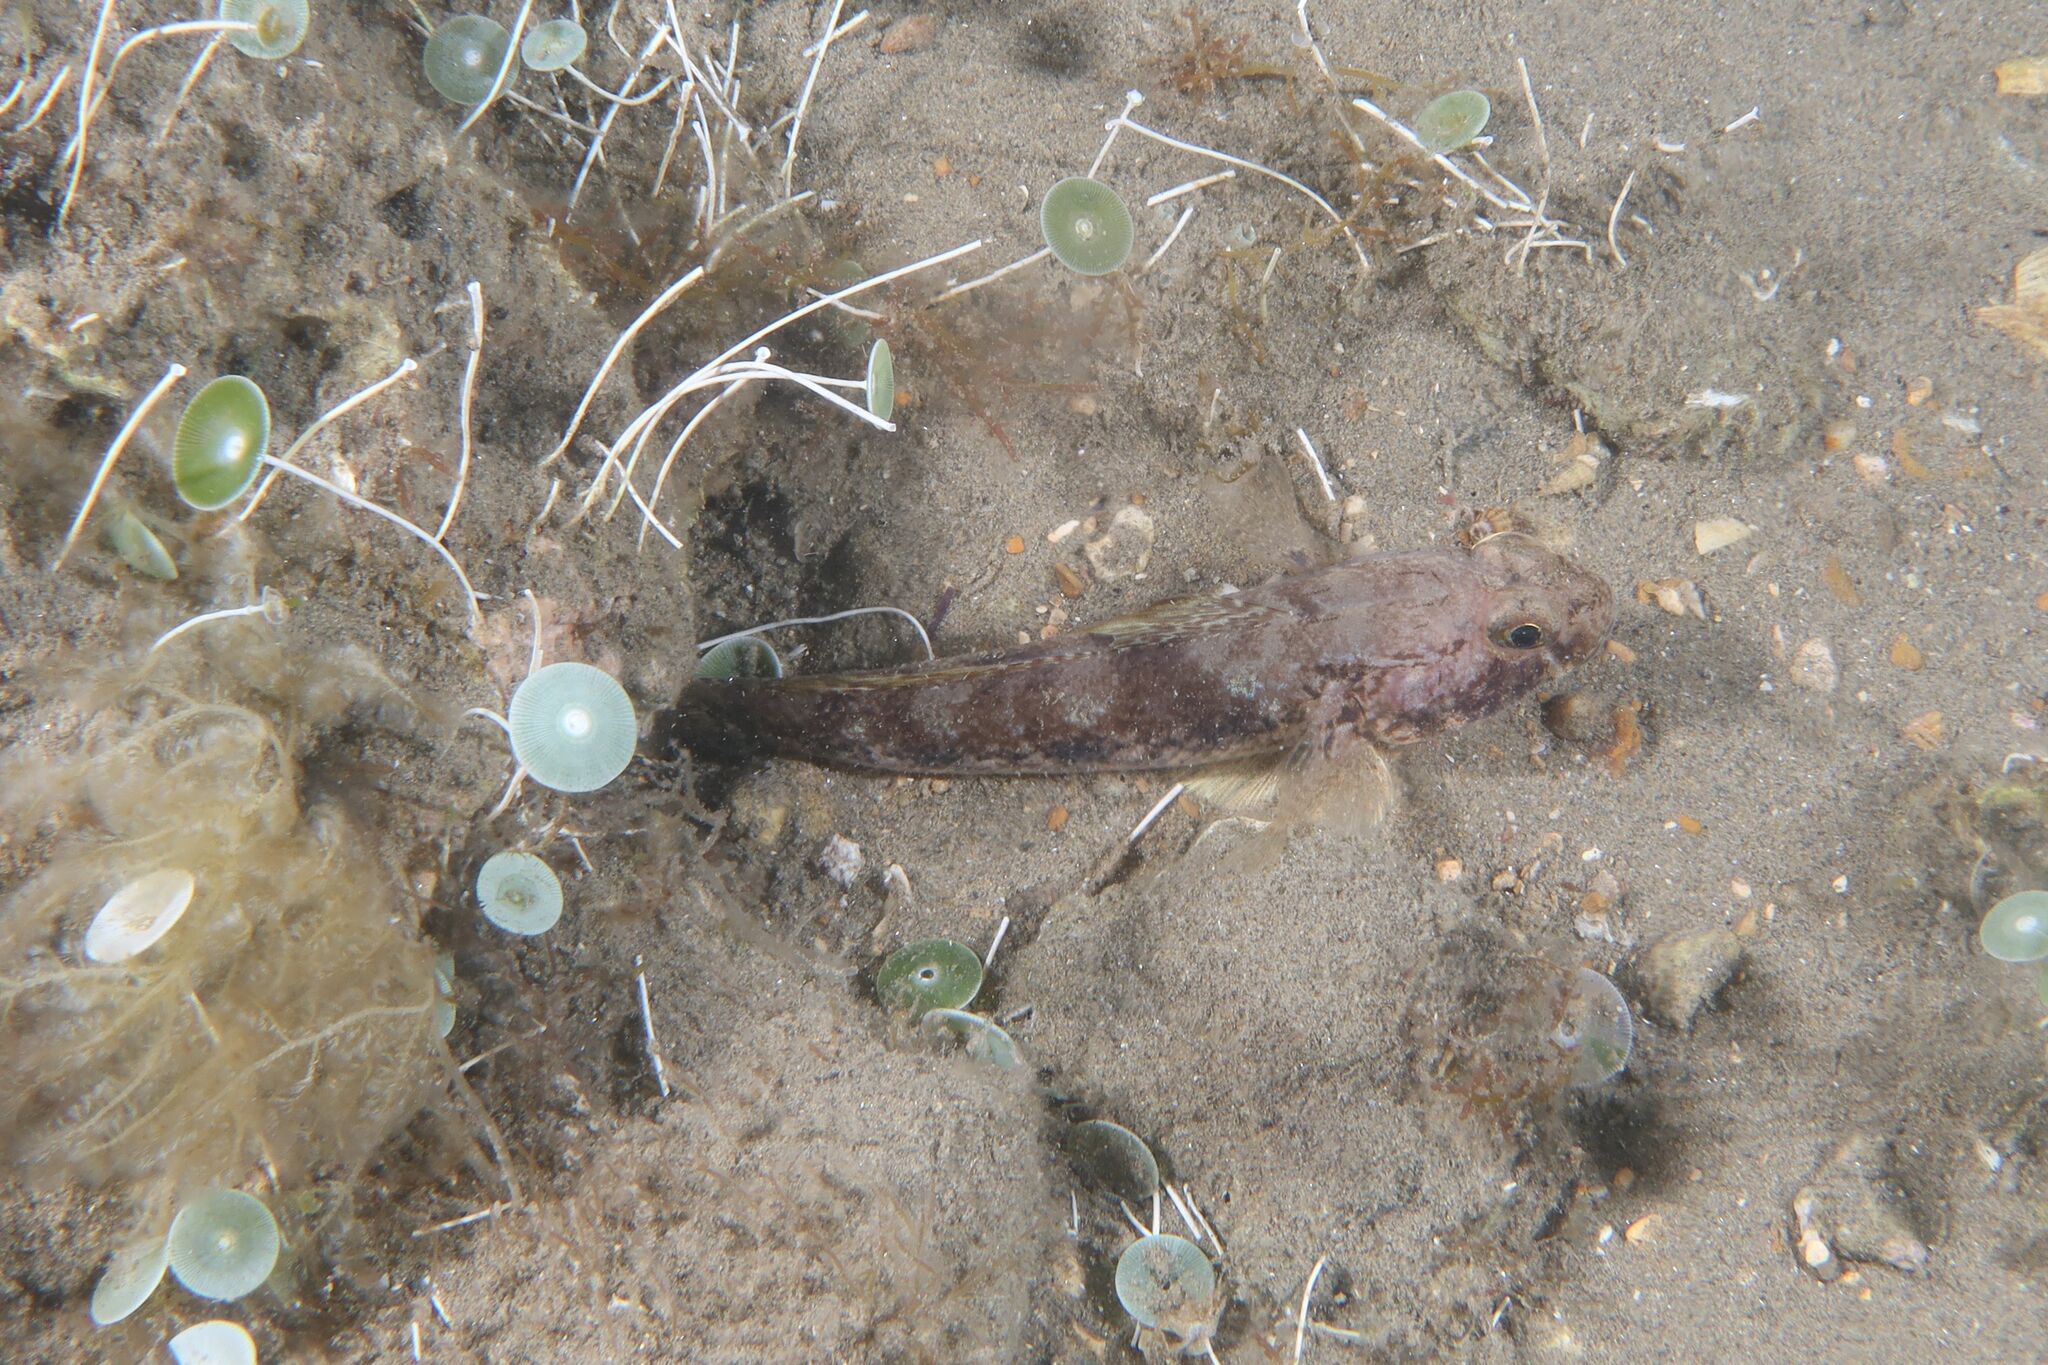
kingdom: Animalia
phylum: Chordata
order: Perciformes
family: Gobiidae
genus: Gobius
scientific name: Gobius niger
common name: Black goby
